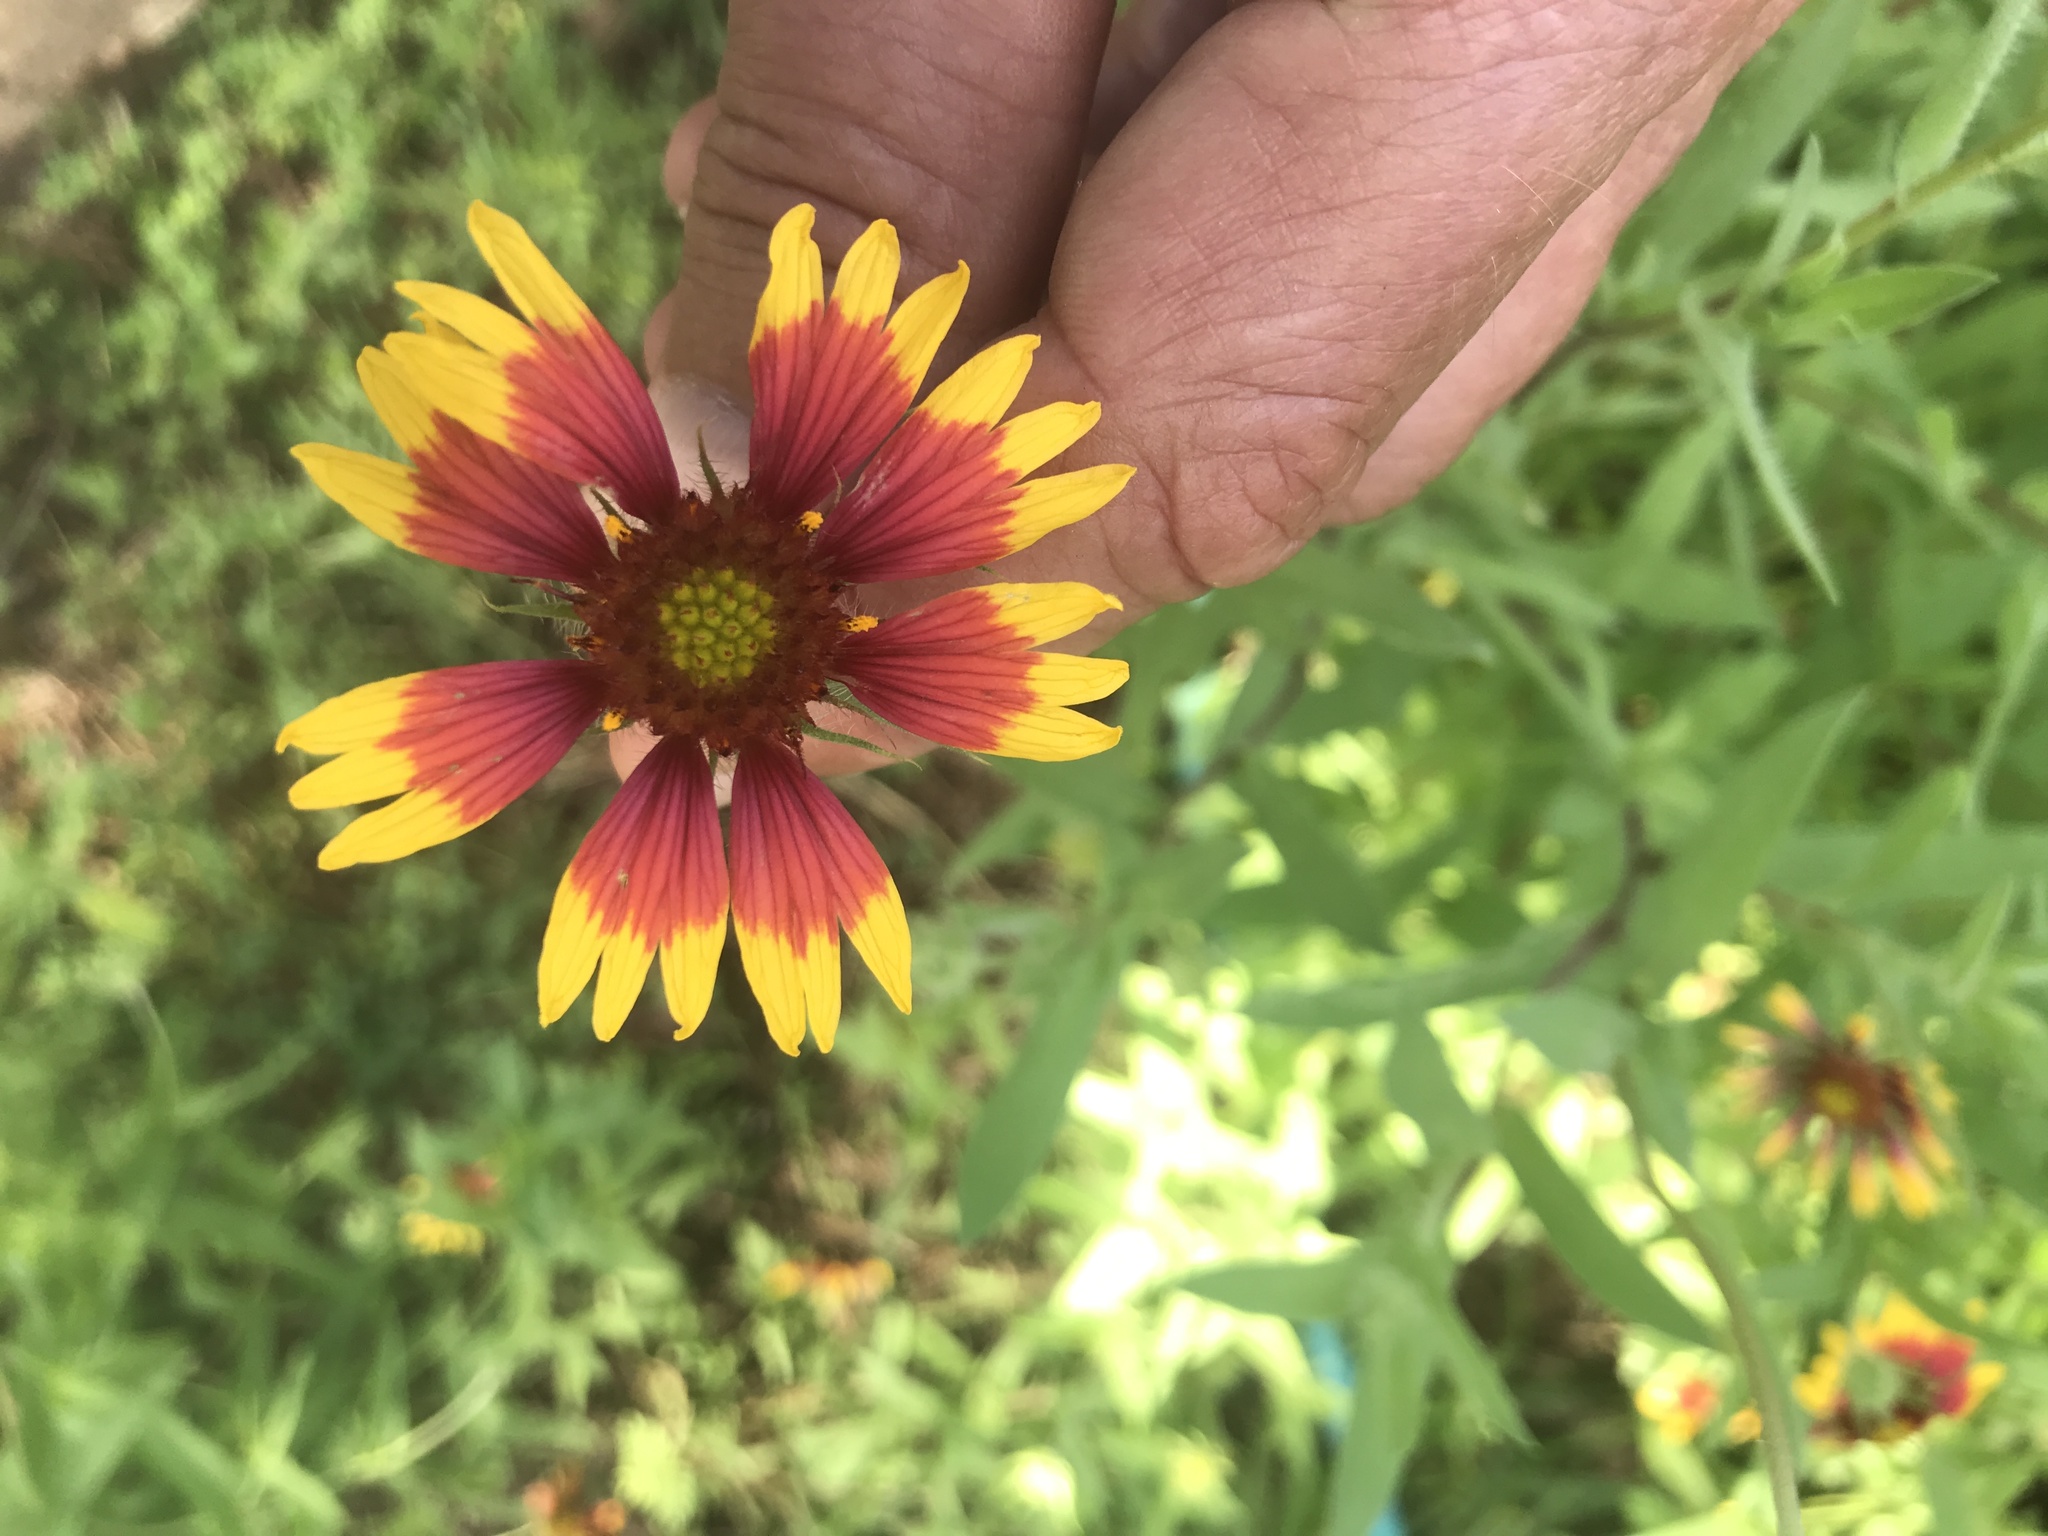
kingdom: Plantae
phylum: Tracheophyta
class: Magnoliopsida
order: Asterales
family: Asteraceae
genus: Gaillardia
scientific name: Gaillardia pulchella
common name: Firewheel
